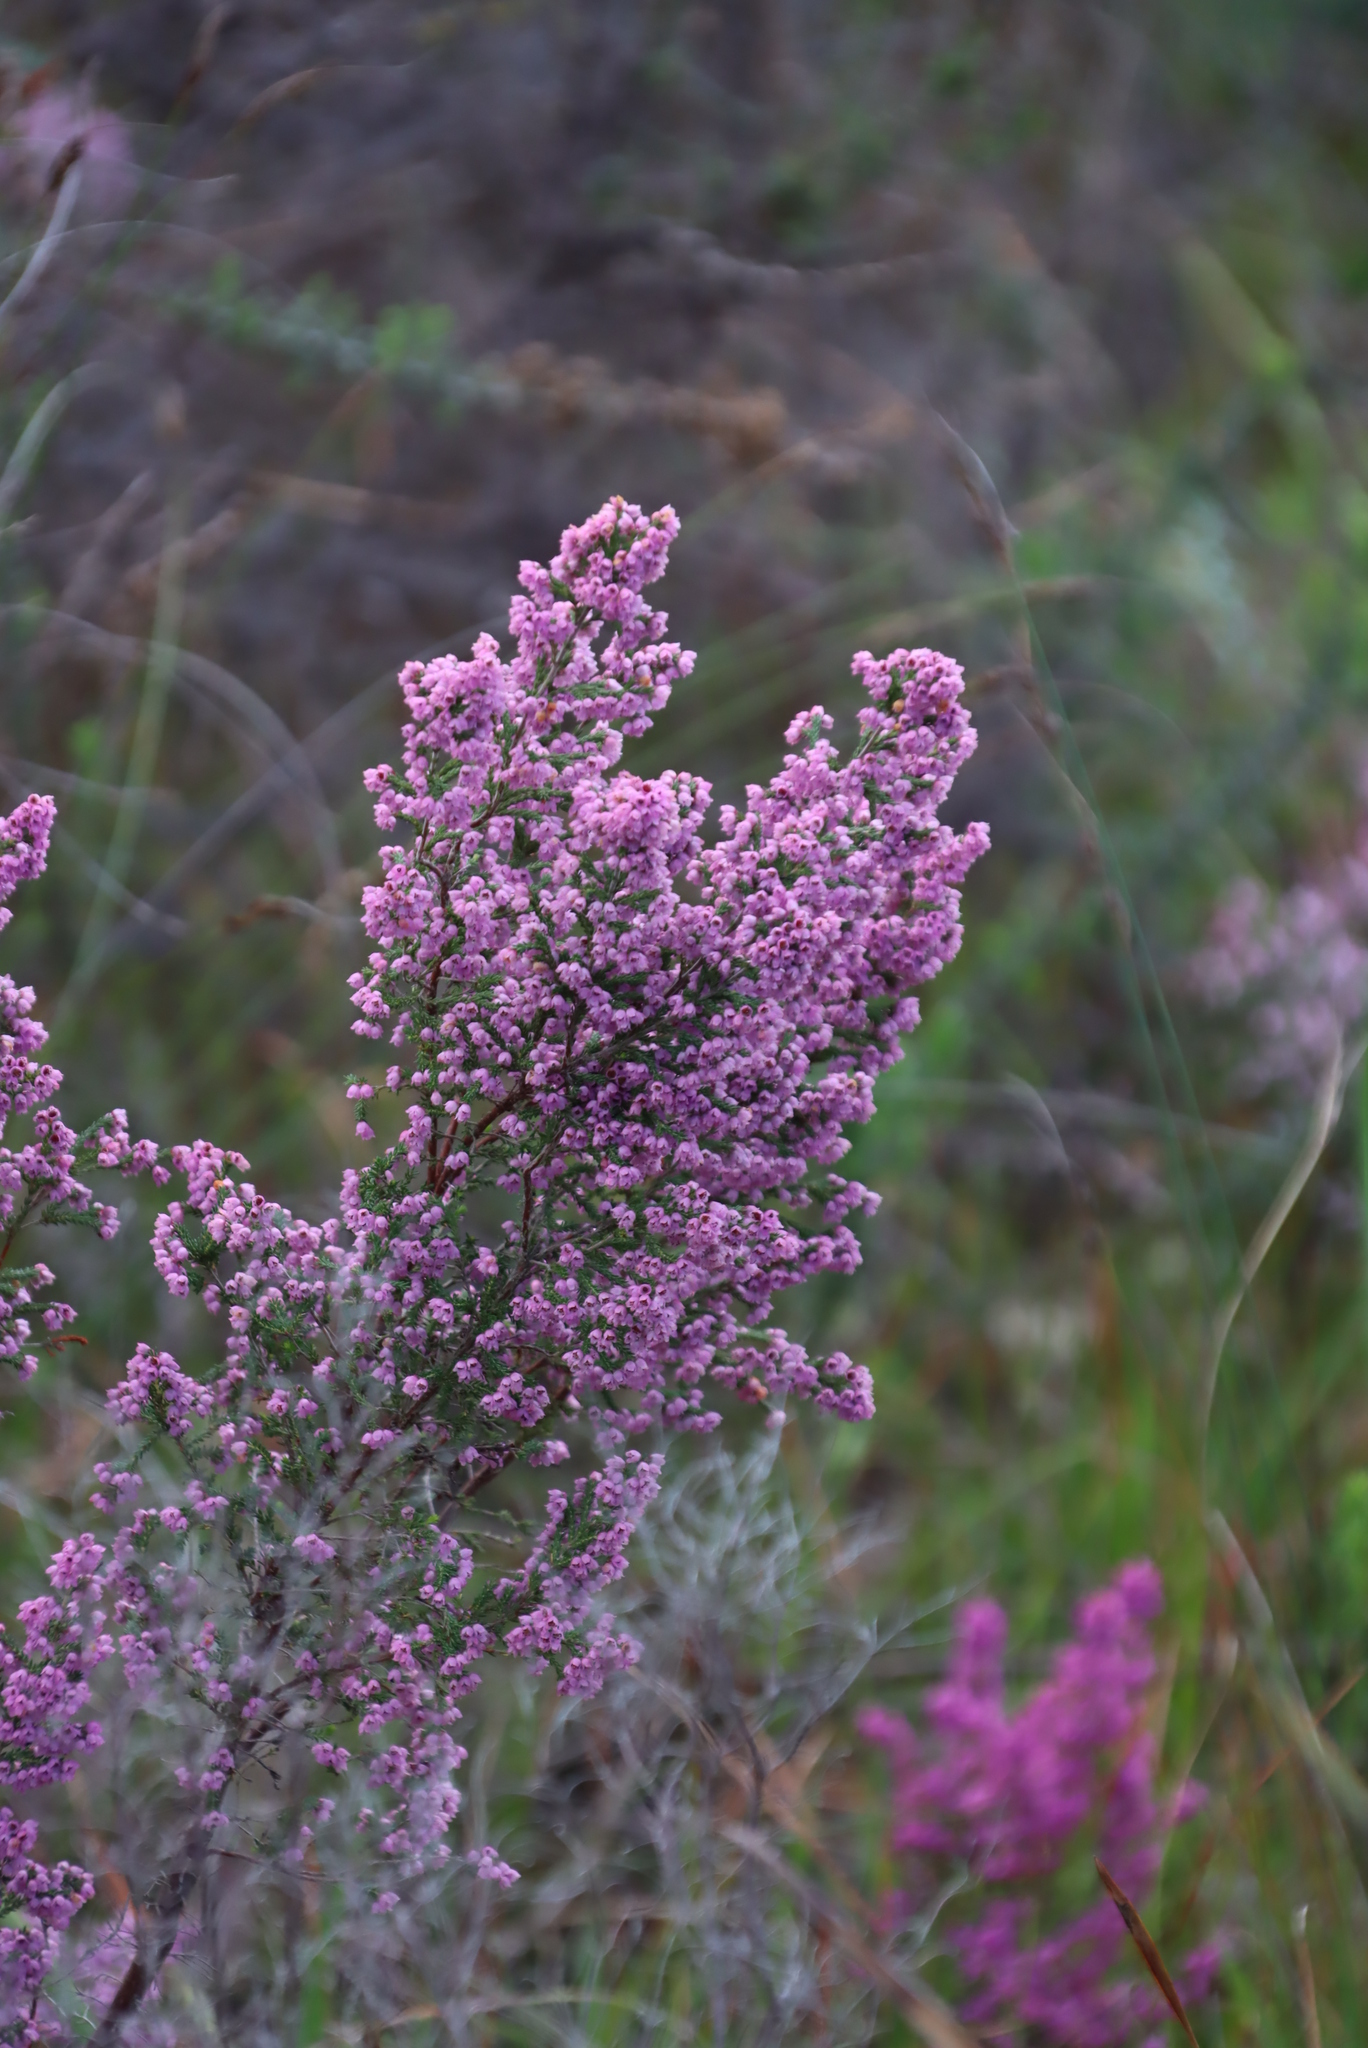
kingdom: Plantae
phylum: Tracheophyta
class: Magnoliopsida
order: Ericales
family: Ericaceae
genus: Erica
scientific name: Erica mauritanica
